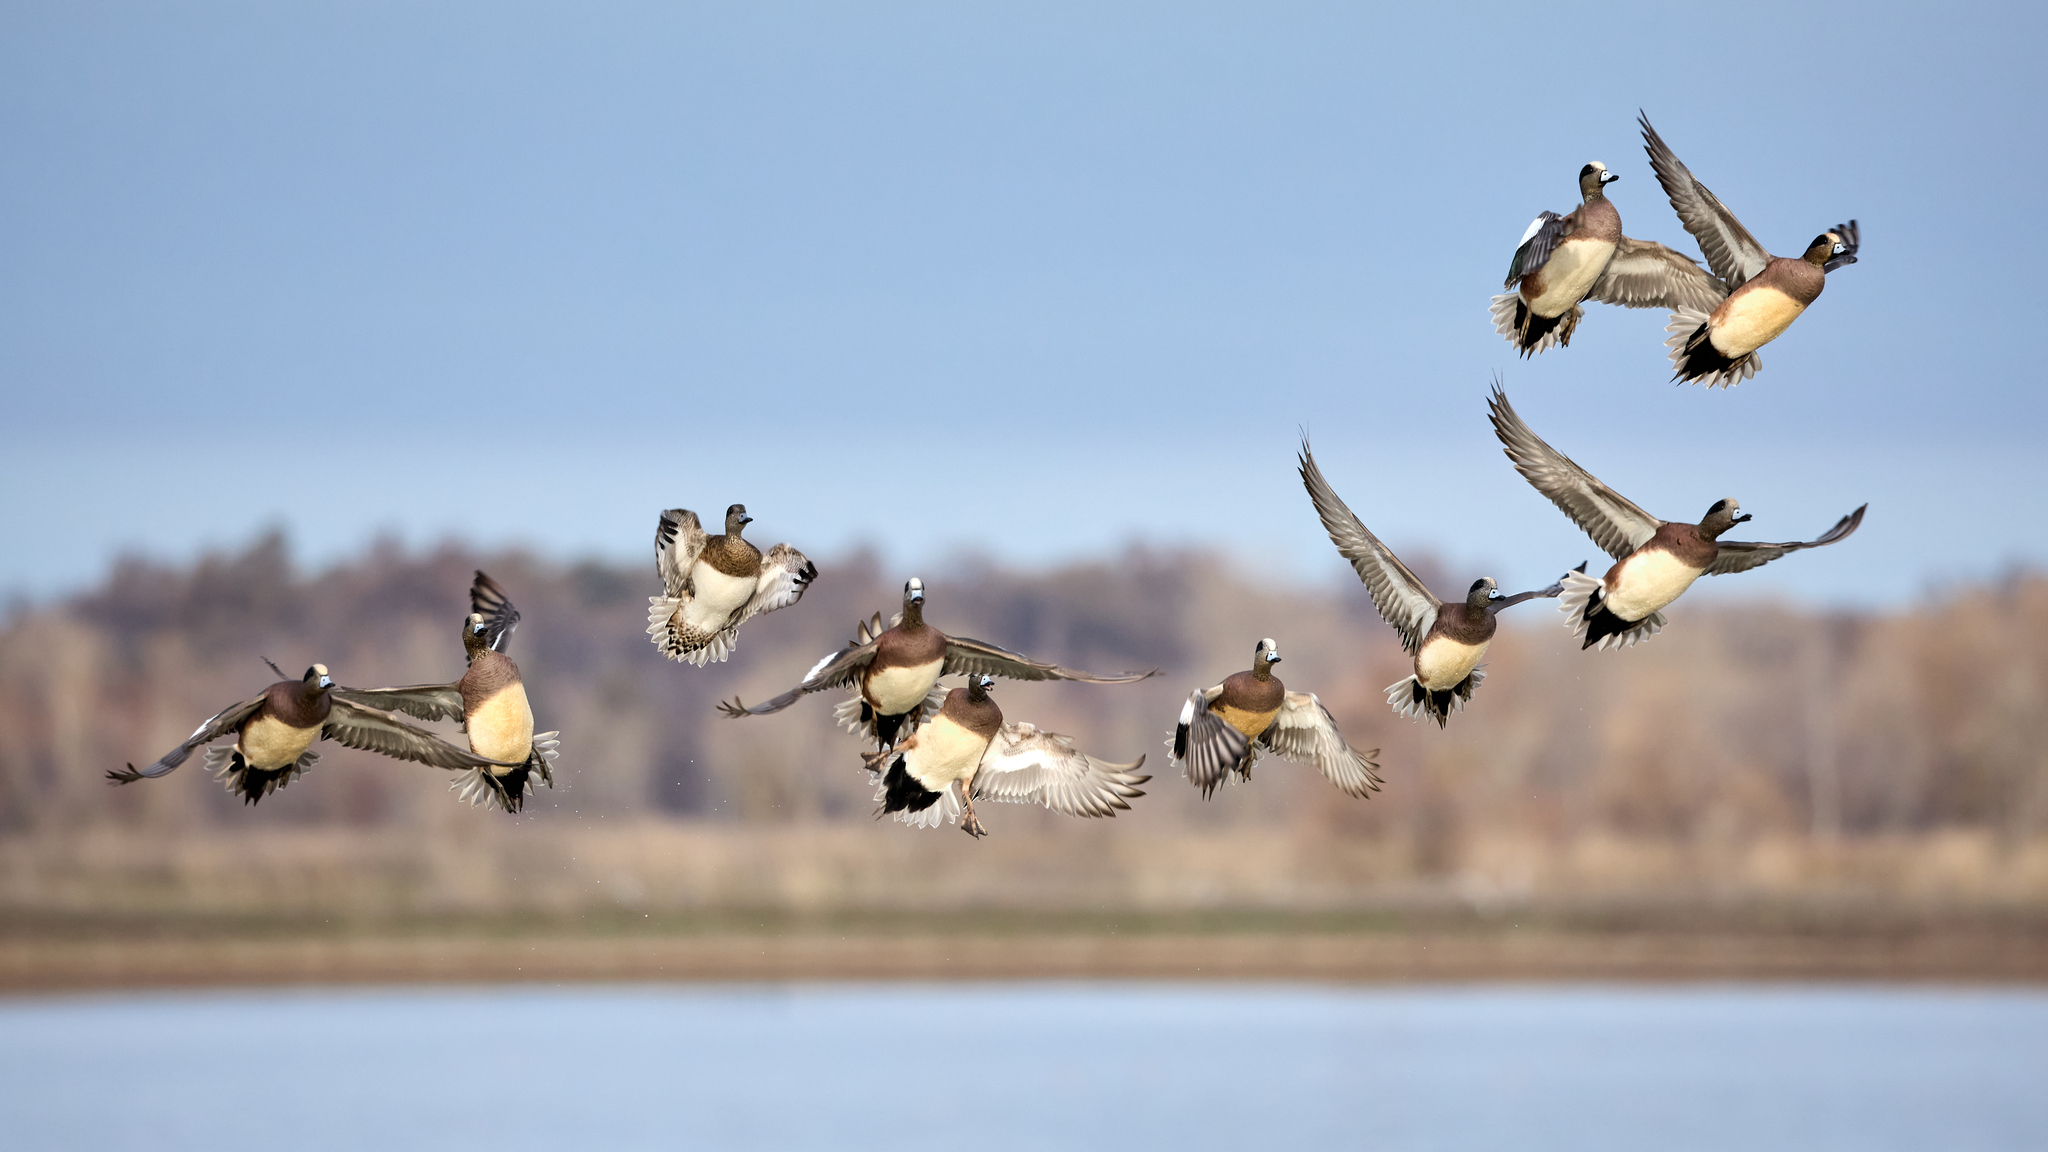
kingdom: Animalia
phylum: Chordata
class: Aves
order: Anseriformes
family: Anatidae
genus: Mareca
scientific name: Mareca americana
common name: American wigeon
